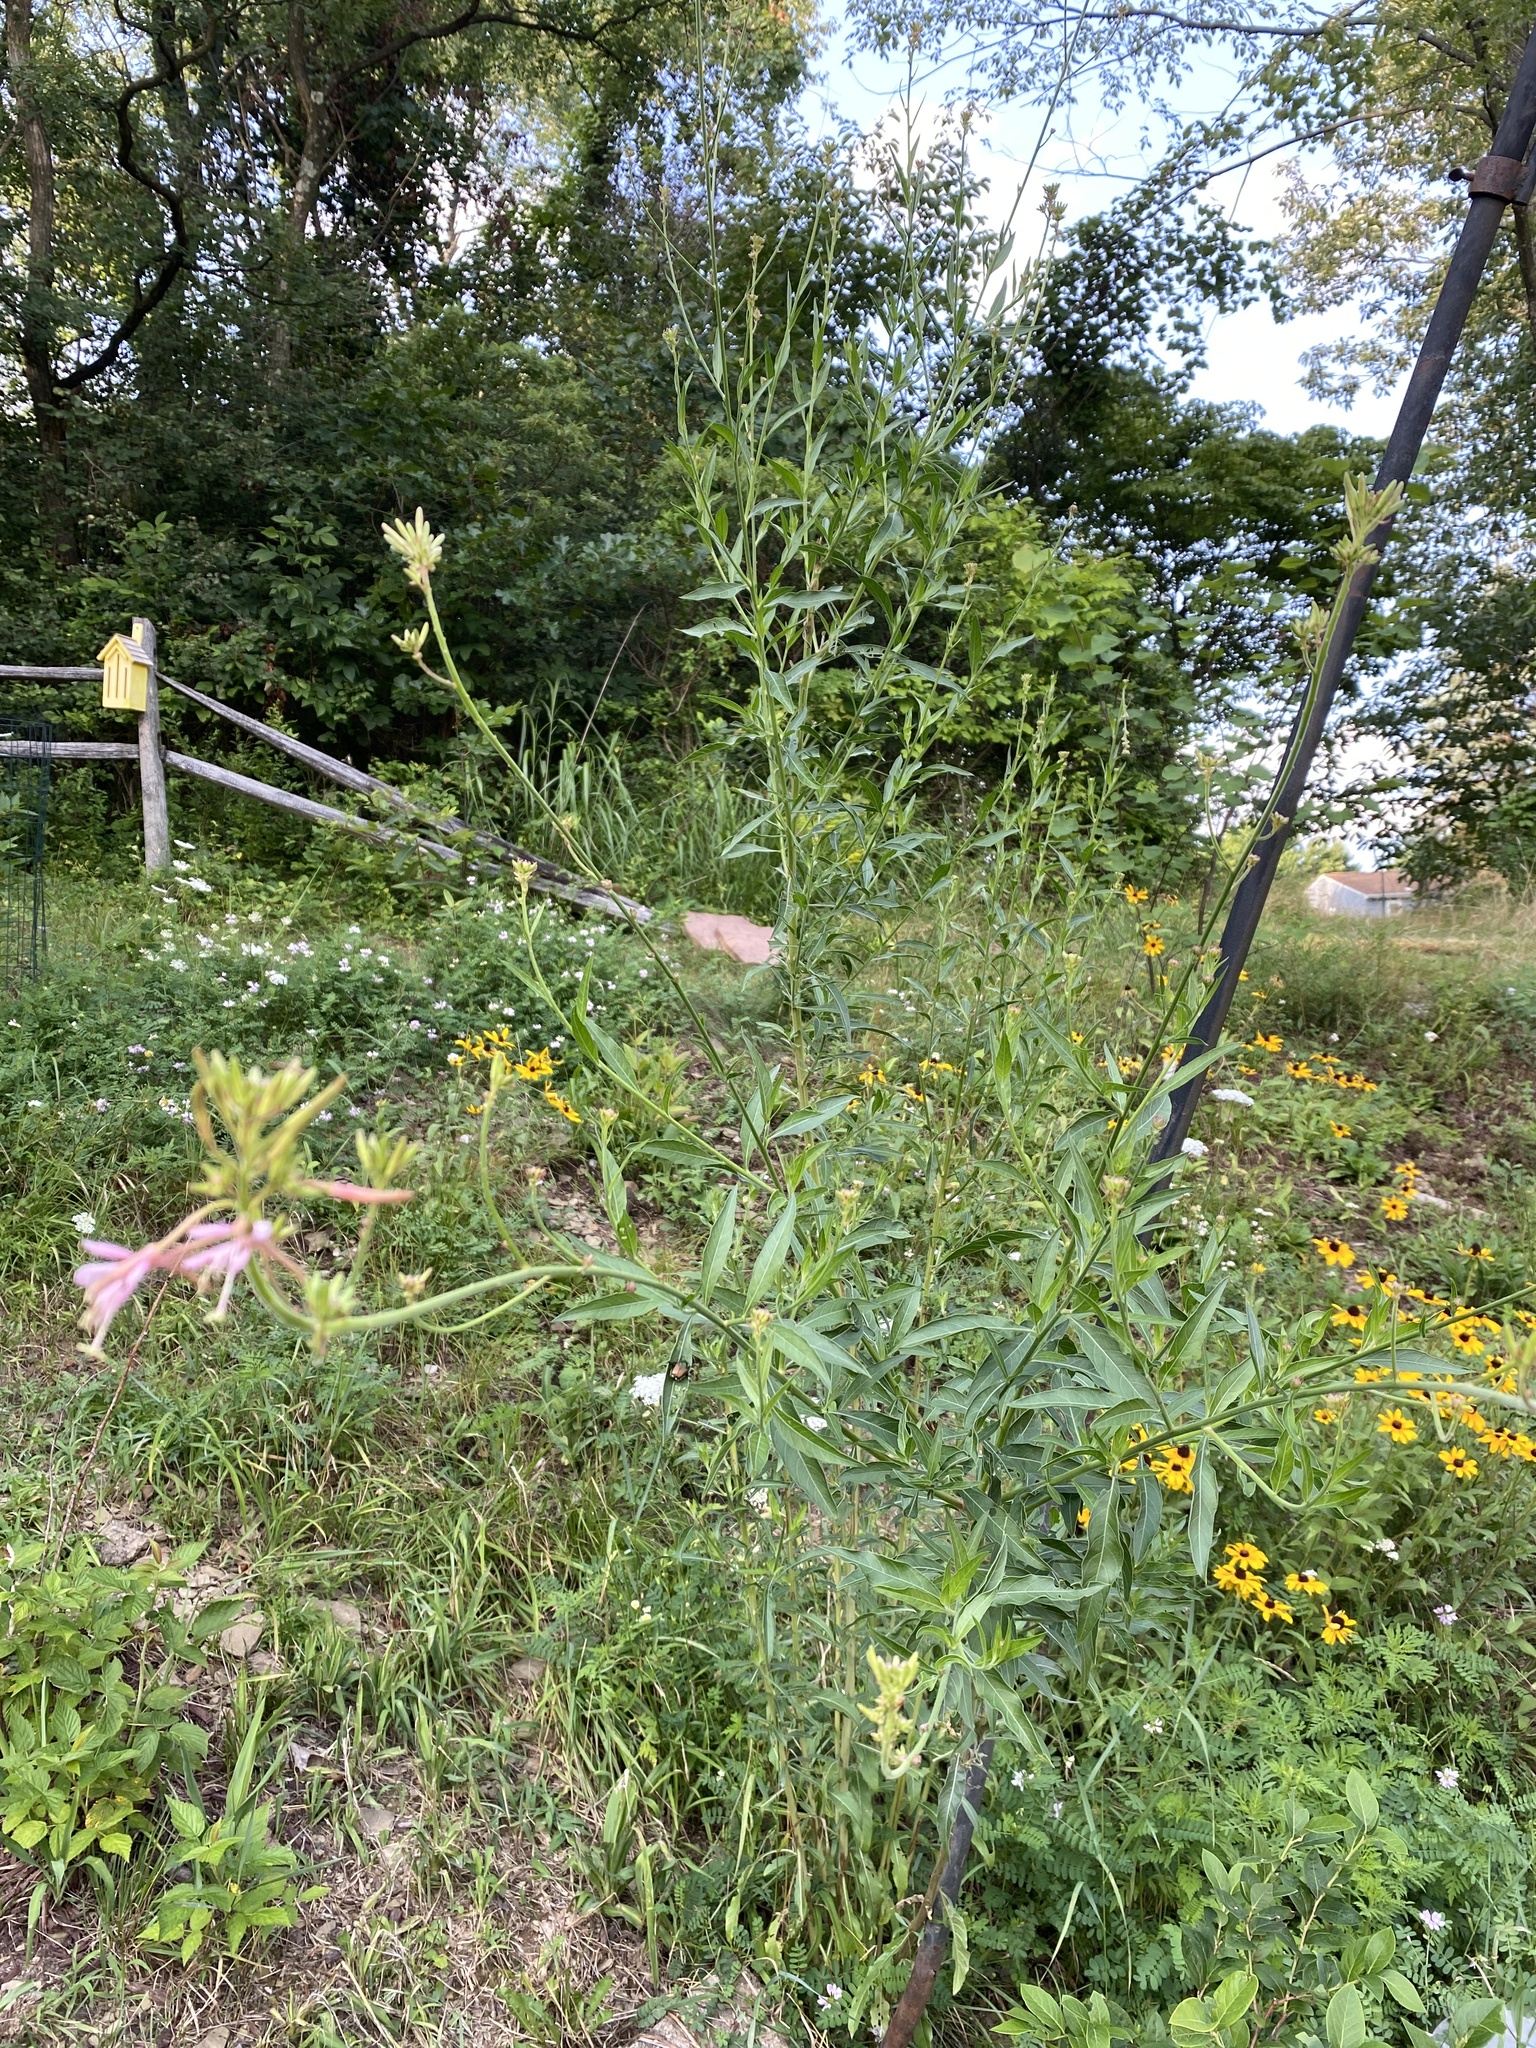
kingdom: Plantae
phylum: Tracheophyta
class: Magnoliopsida
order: Myrtales
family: Onagraceae
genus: Oenothera
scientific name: Oenothera gaura
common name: Biennial beeblossom
